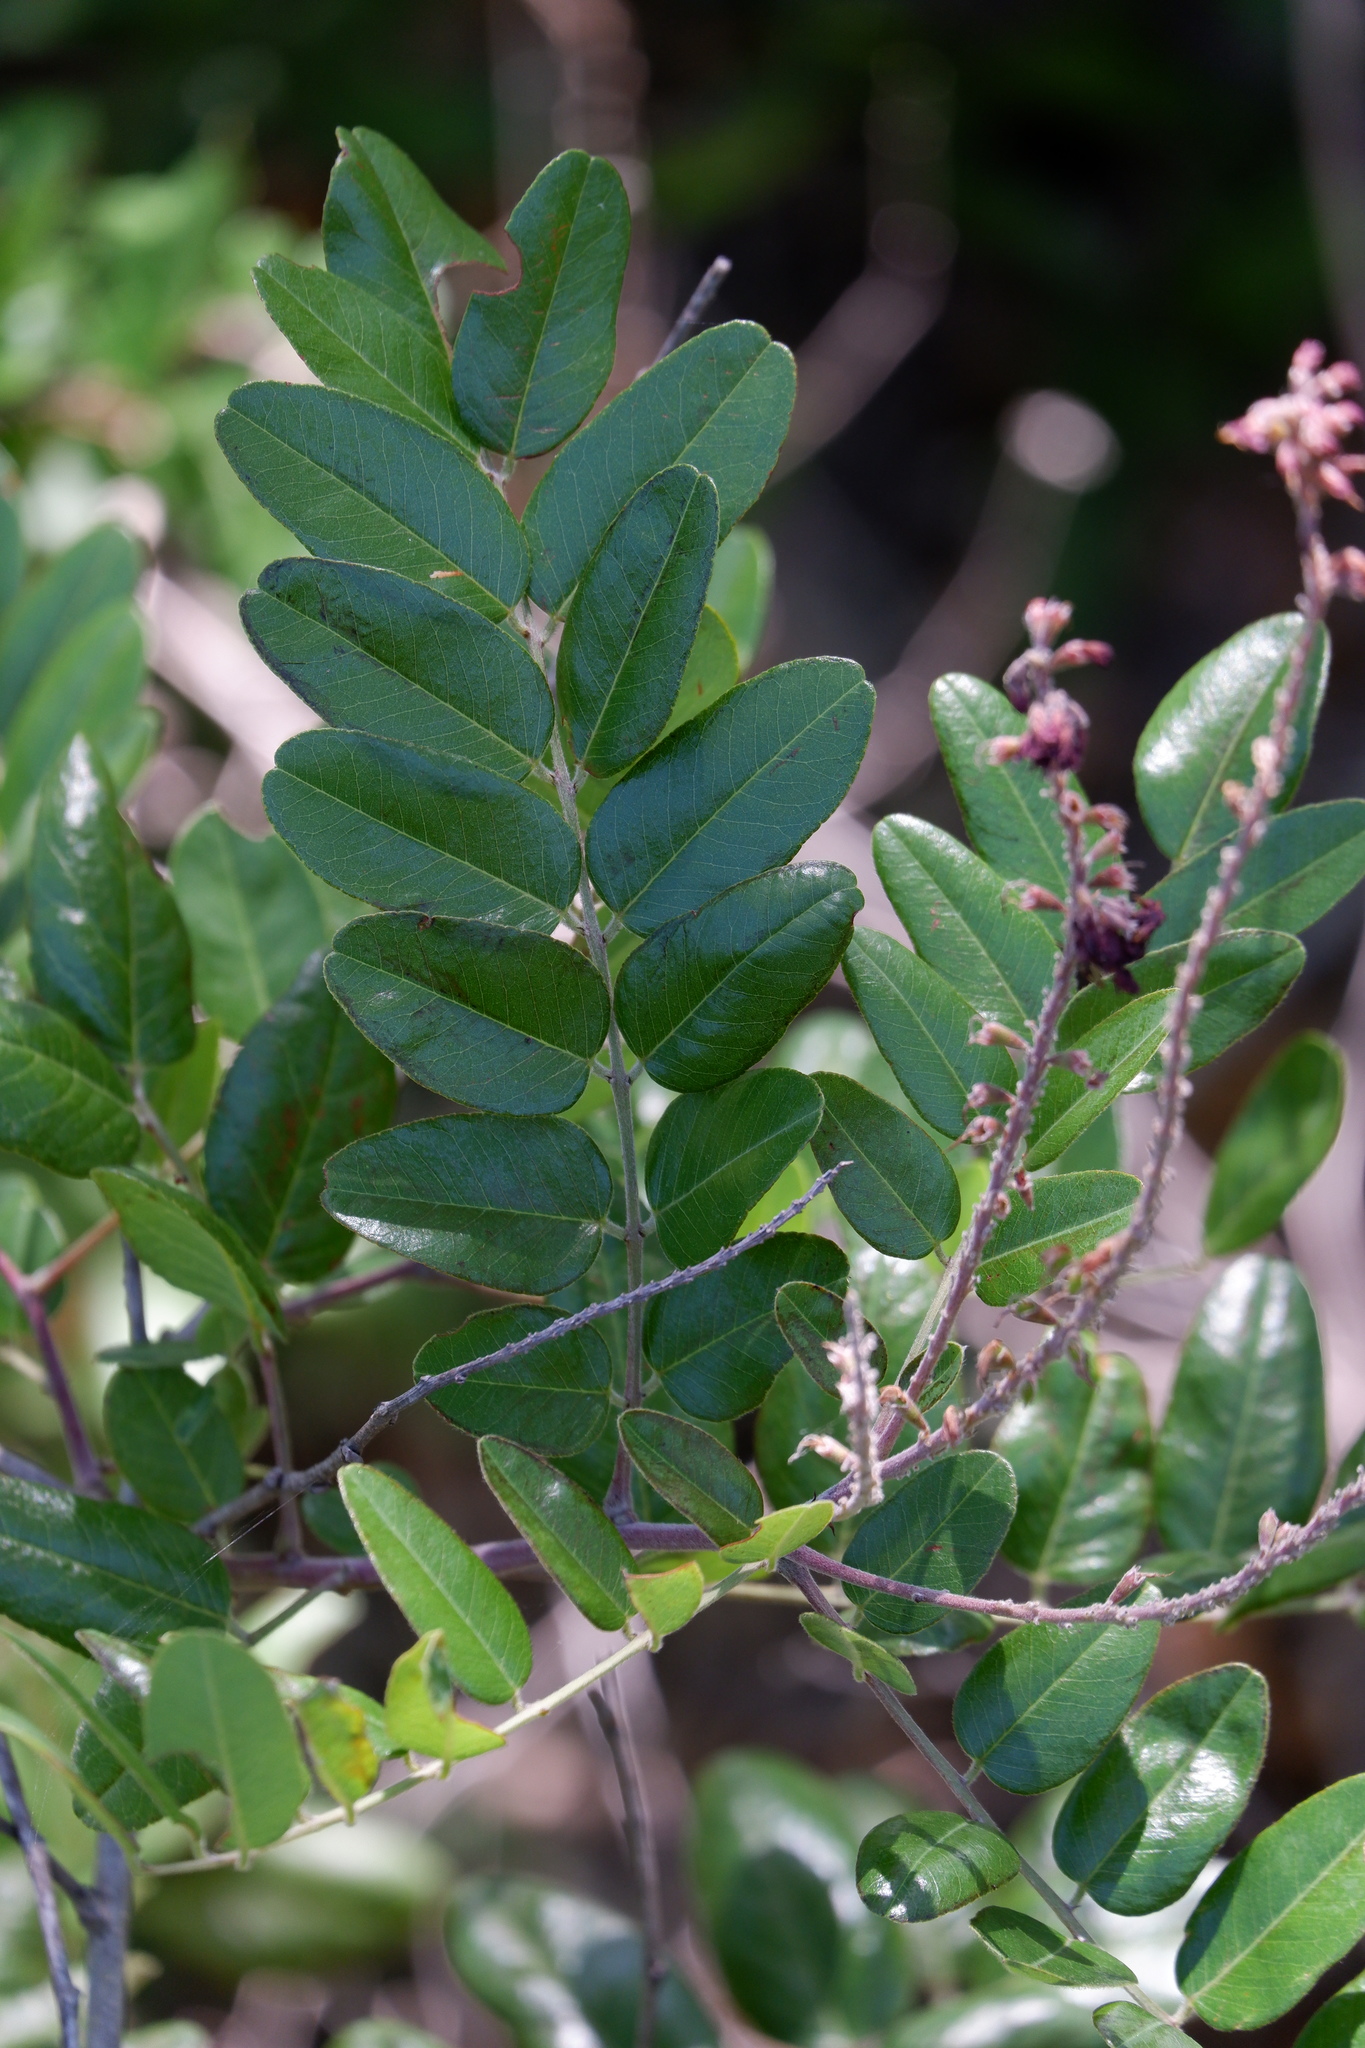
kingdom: Plantae
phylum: Tracheophyta
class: Magnoliopsida
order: Fabales
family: Fabaceae
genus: Amorpha
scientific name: Amorpha roemeriana
